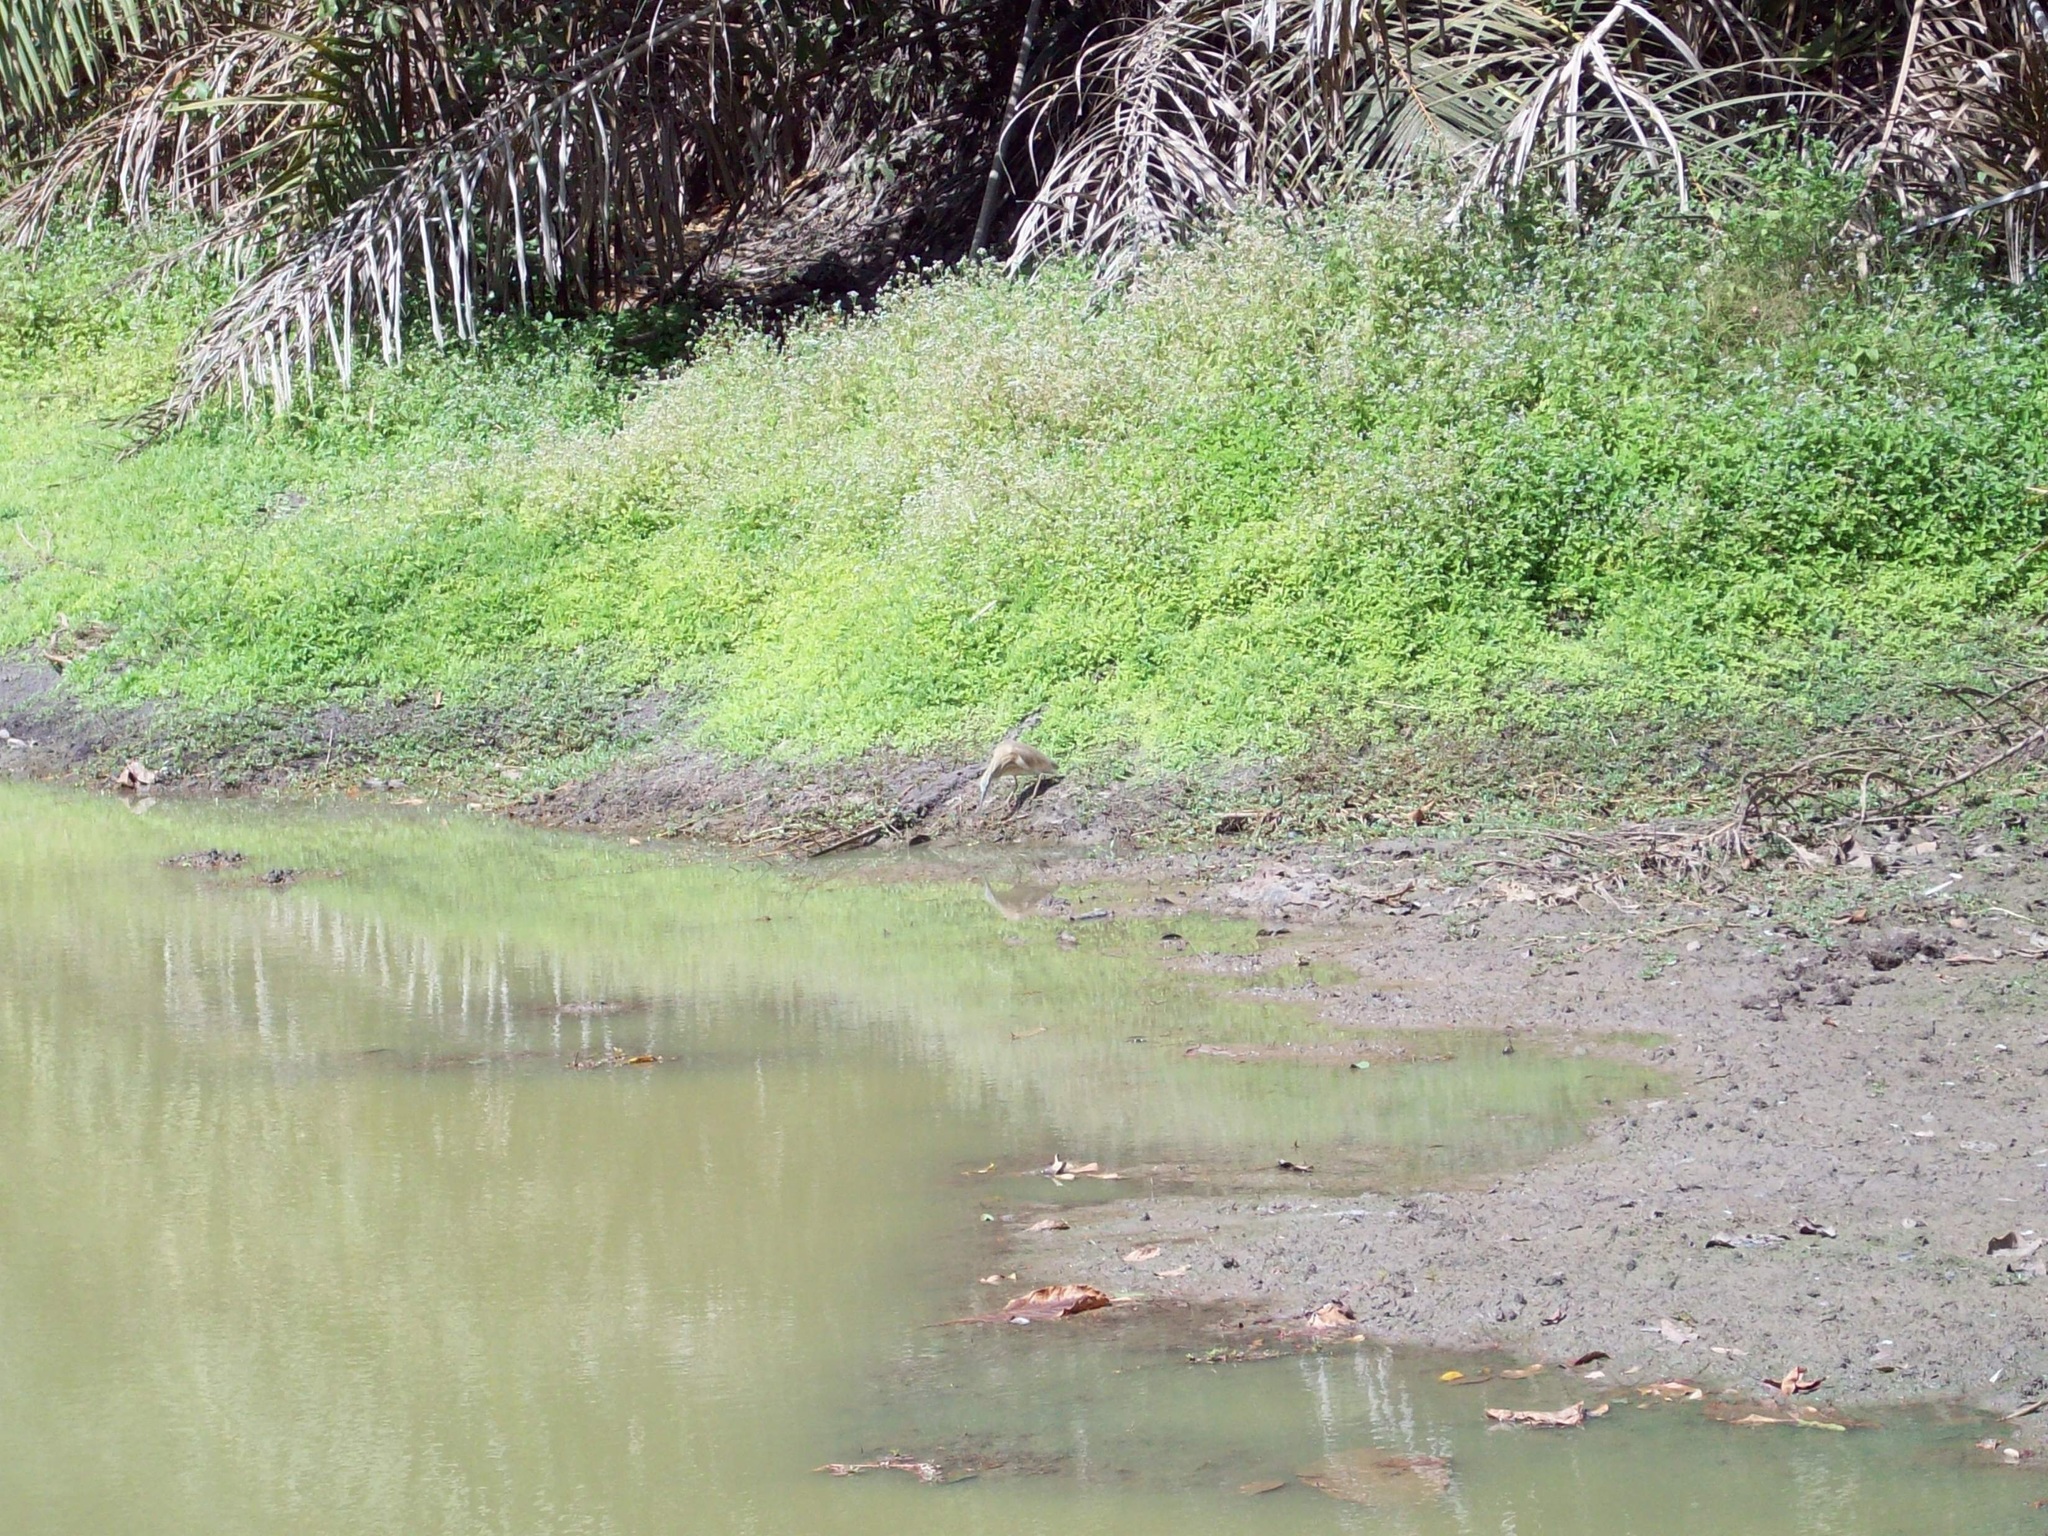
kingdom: Animalia
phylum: Chordata
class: Aves
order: Pelecaniformes
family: Ardeidae
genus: Ardeola
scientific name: Ardeola ralloides
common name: Squacco heron
